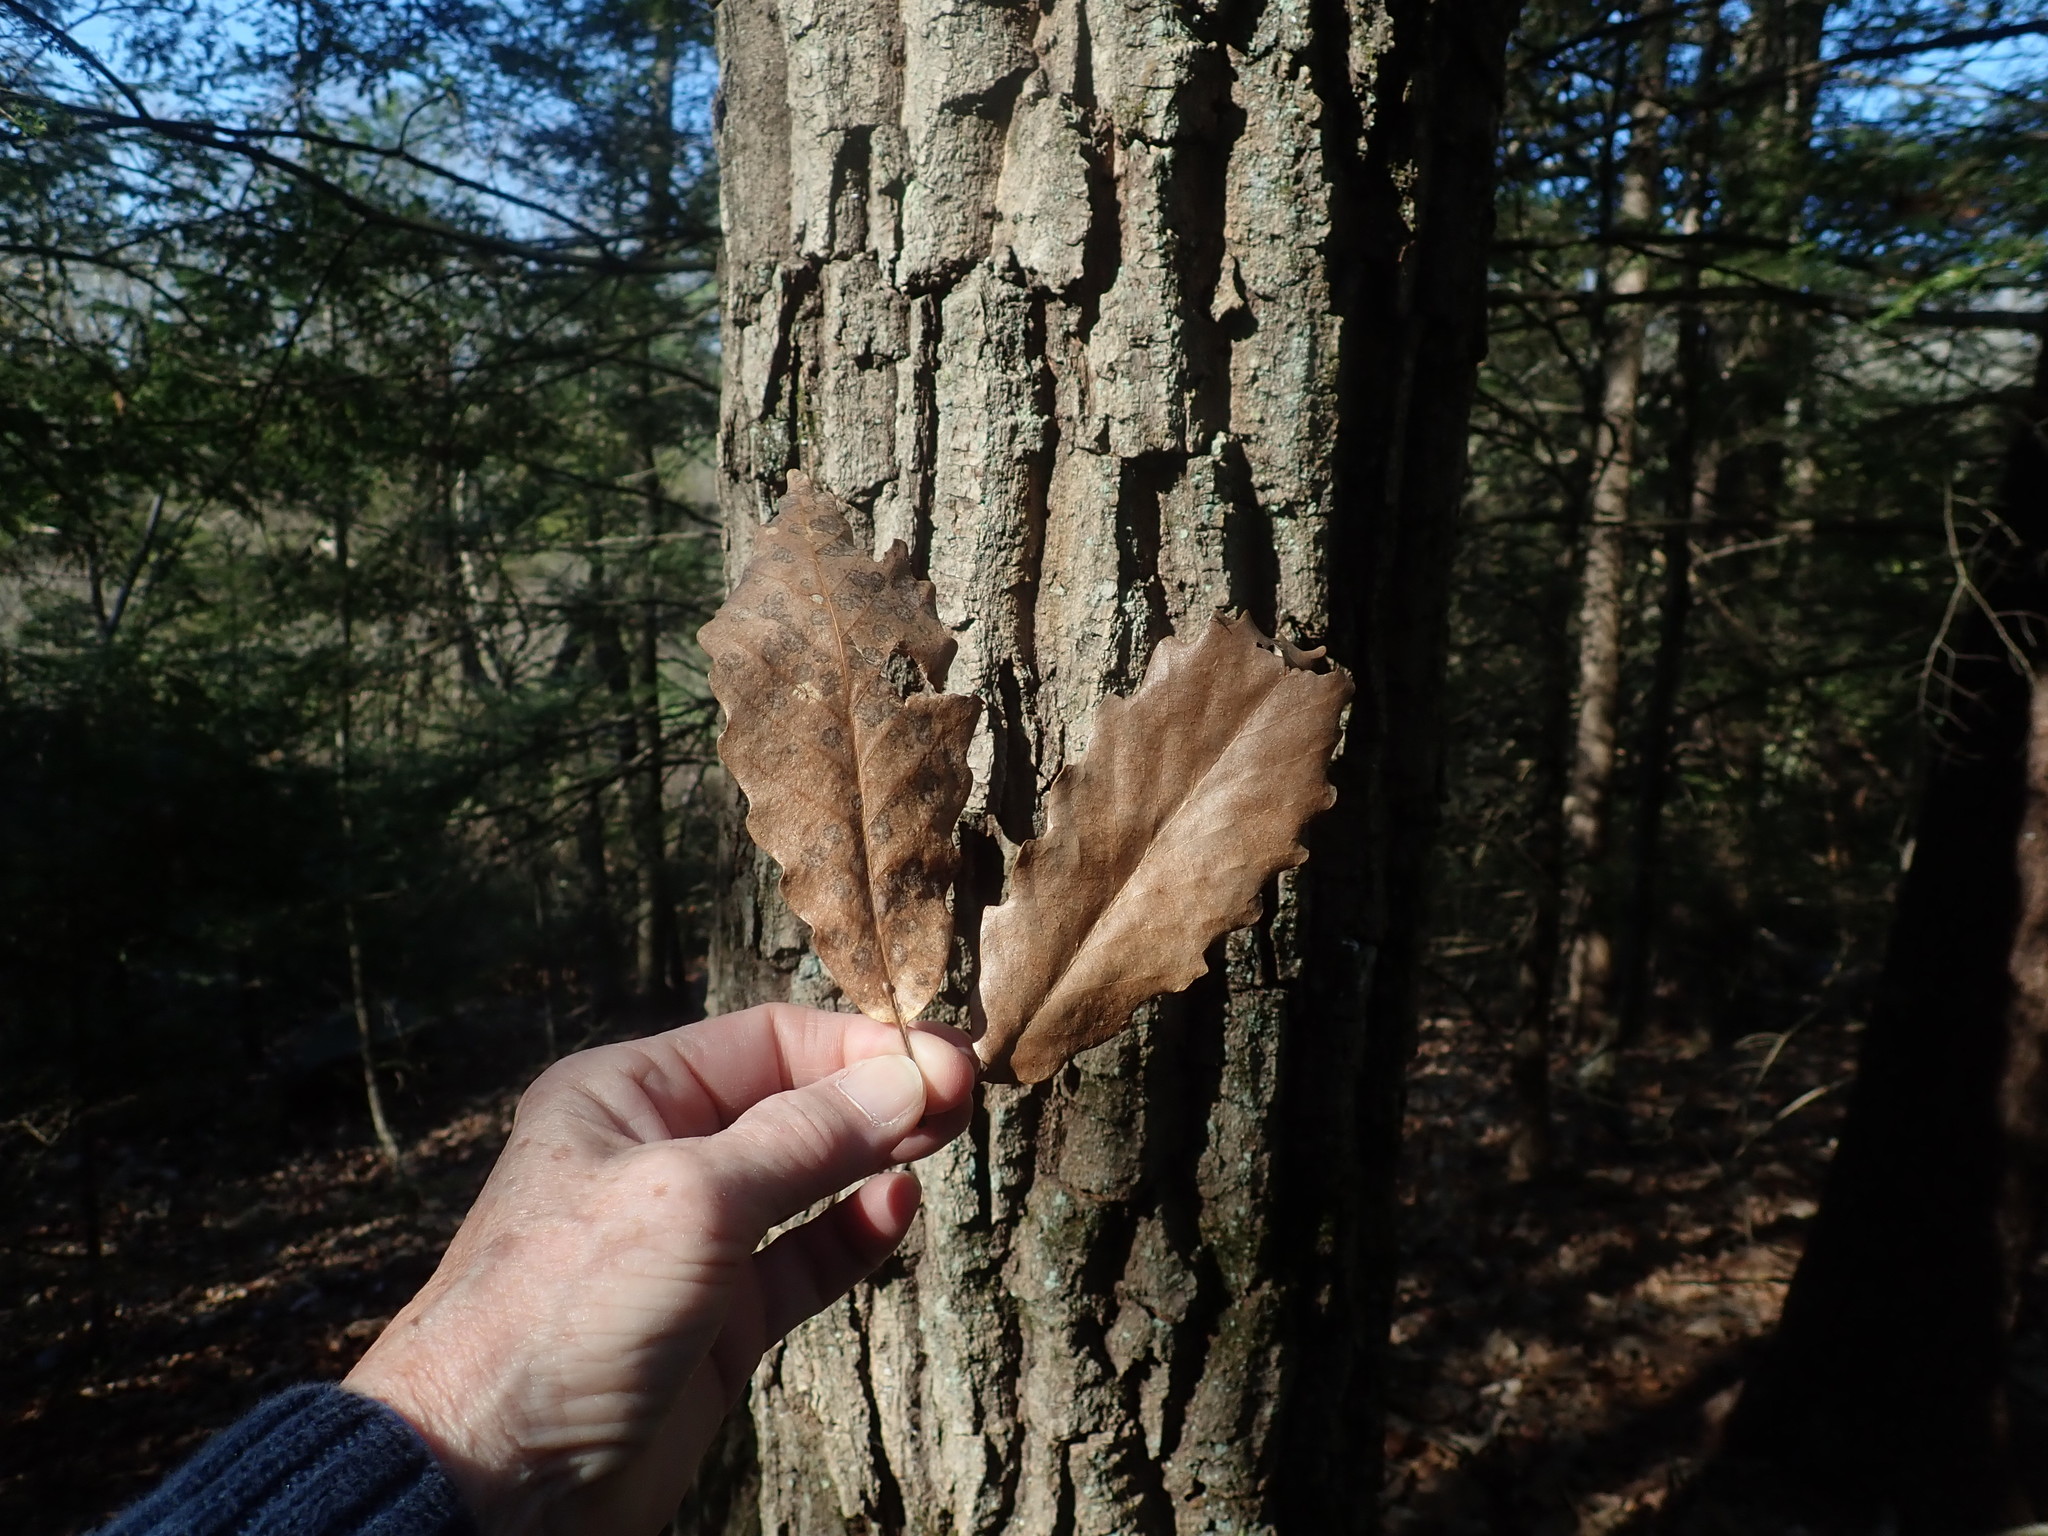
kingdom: Plantae
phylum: Tracheophyta
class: Magnoliopsida
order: Fagales
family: Fagaceae
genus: Quercus
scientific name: Quercus montana
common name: Chestnut oak
